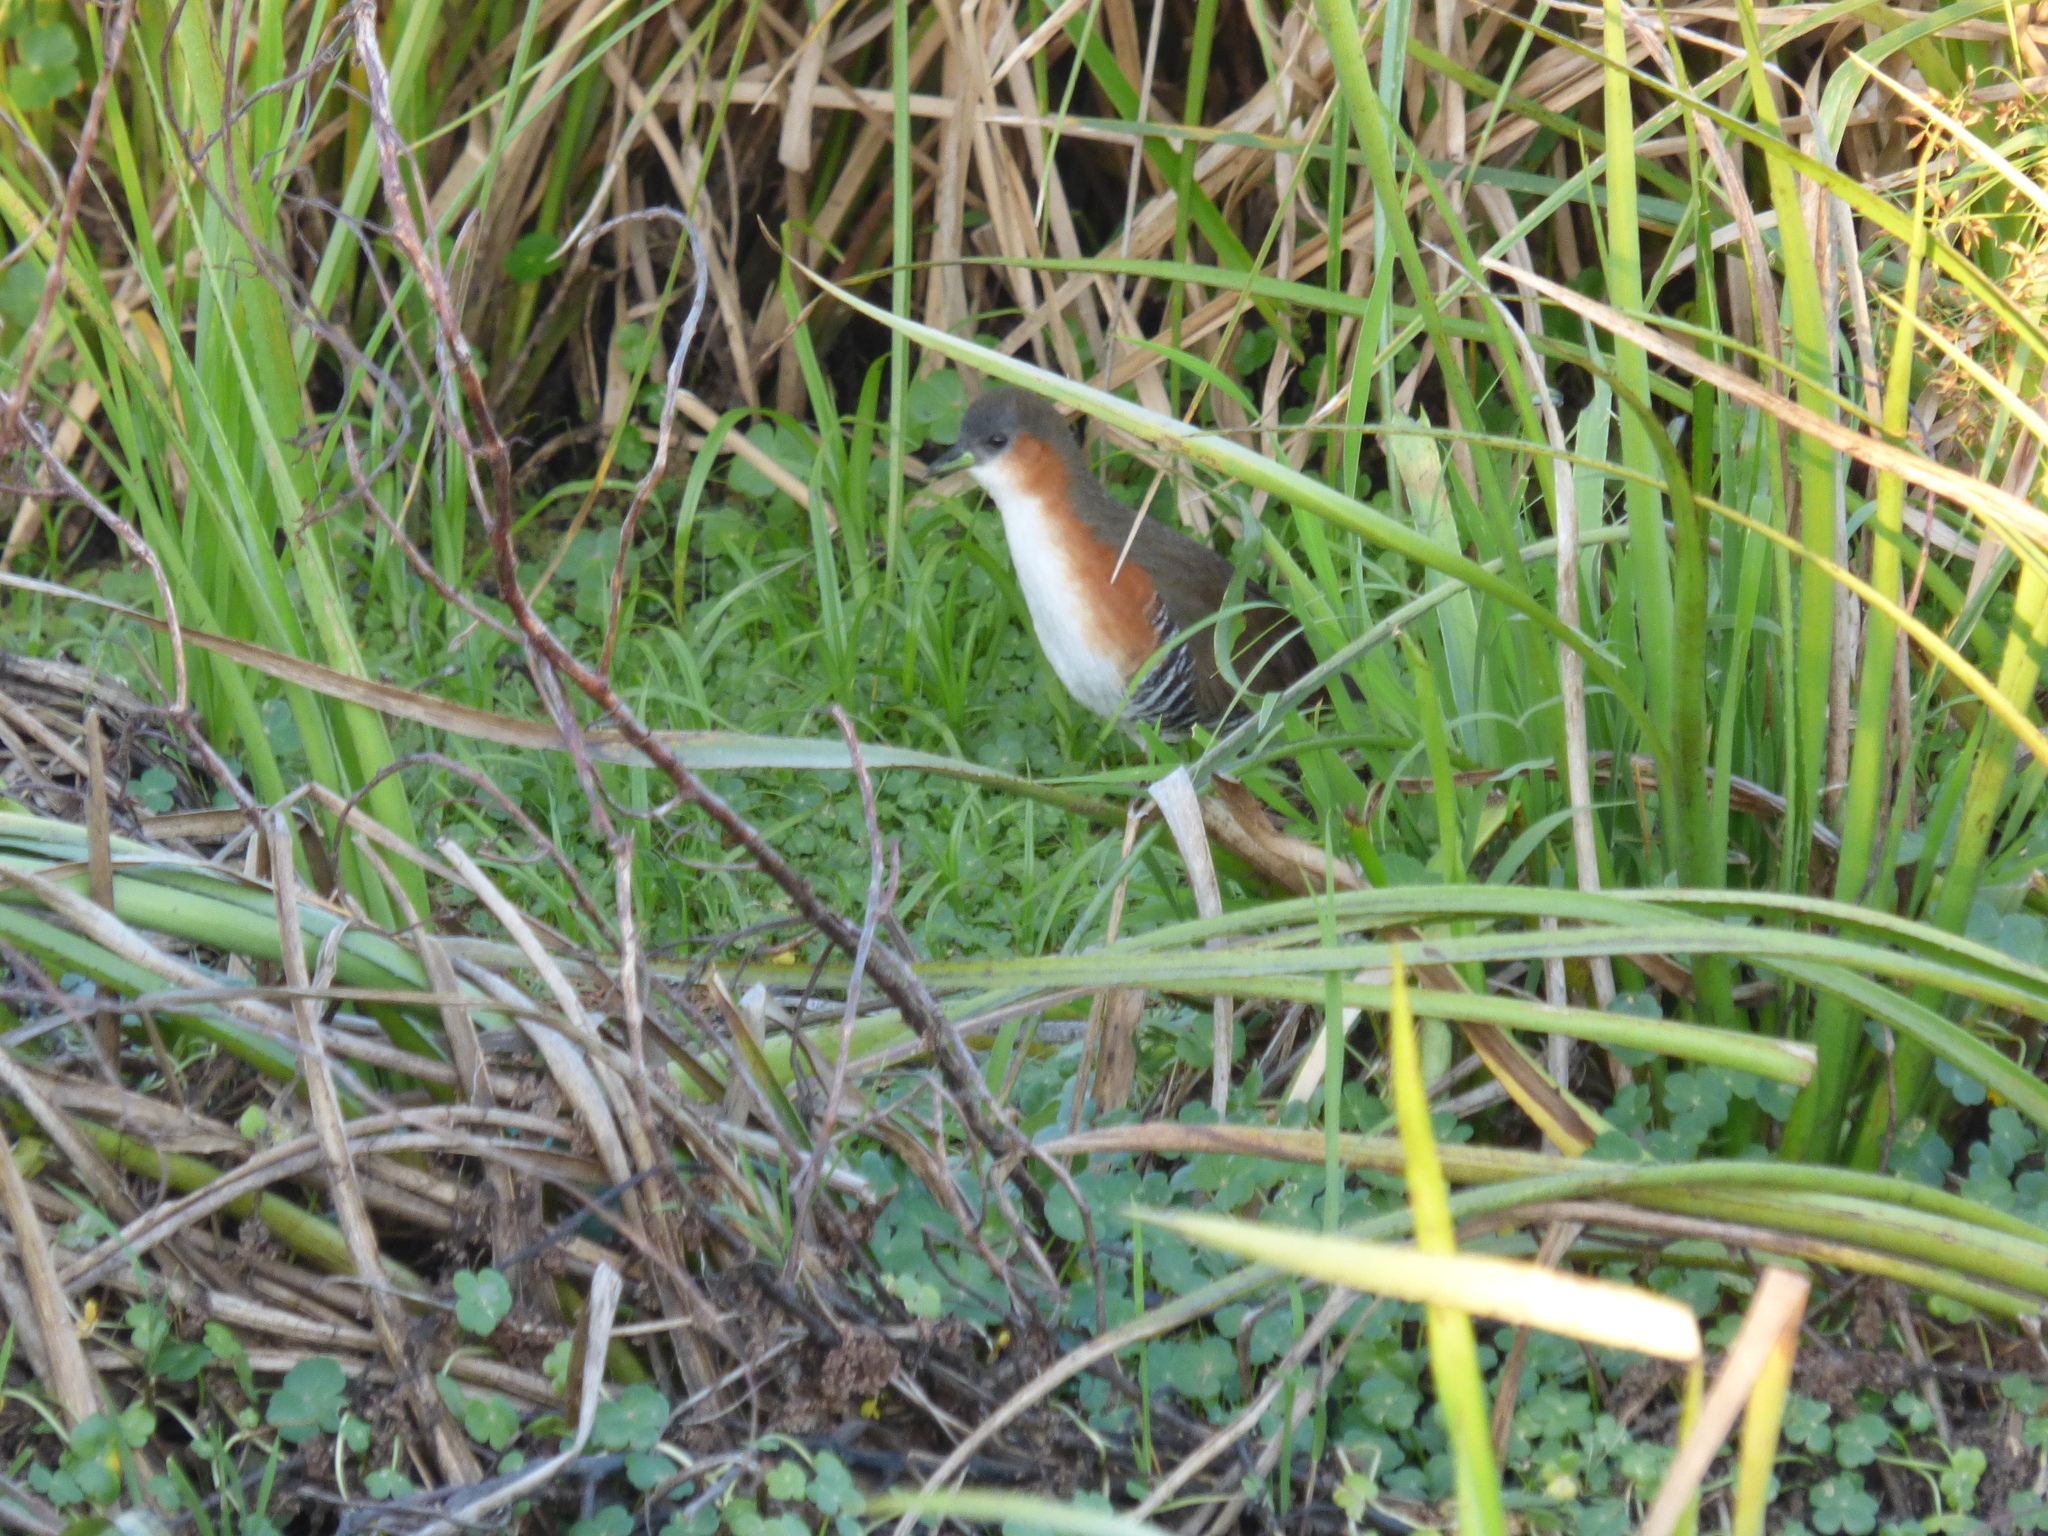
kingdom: Animalia
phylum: Chordata
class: Aves
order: Gruiformes
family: Rallidae
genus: Laterallus
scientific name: Laterallus melanophaius
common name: Rufous-sided crake
